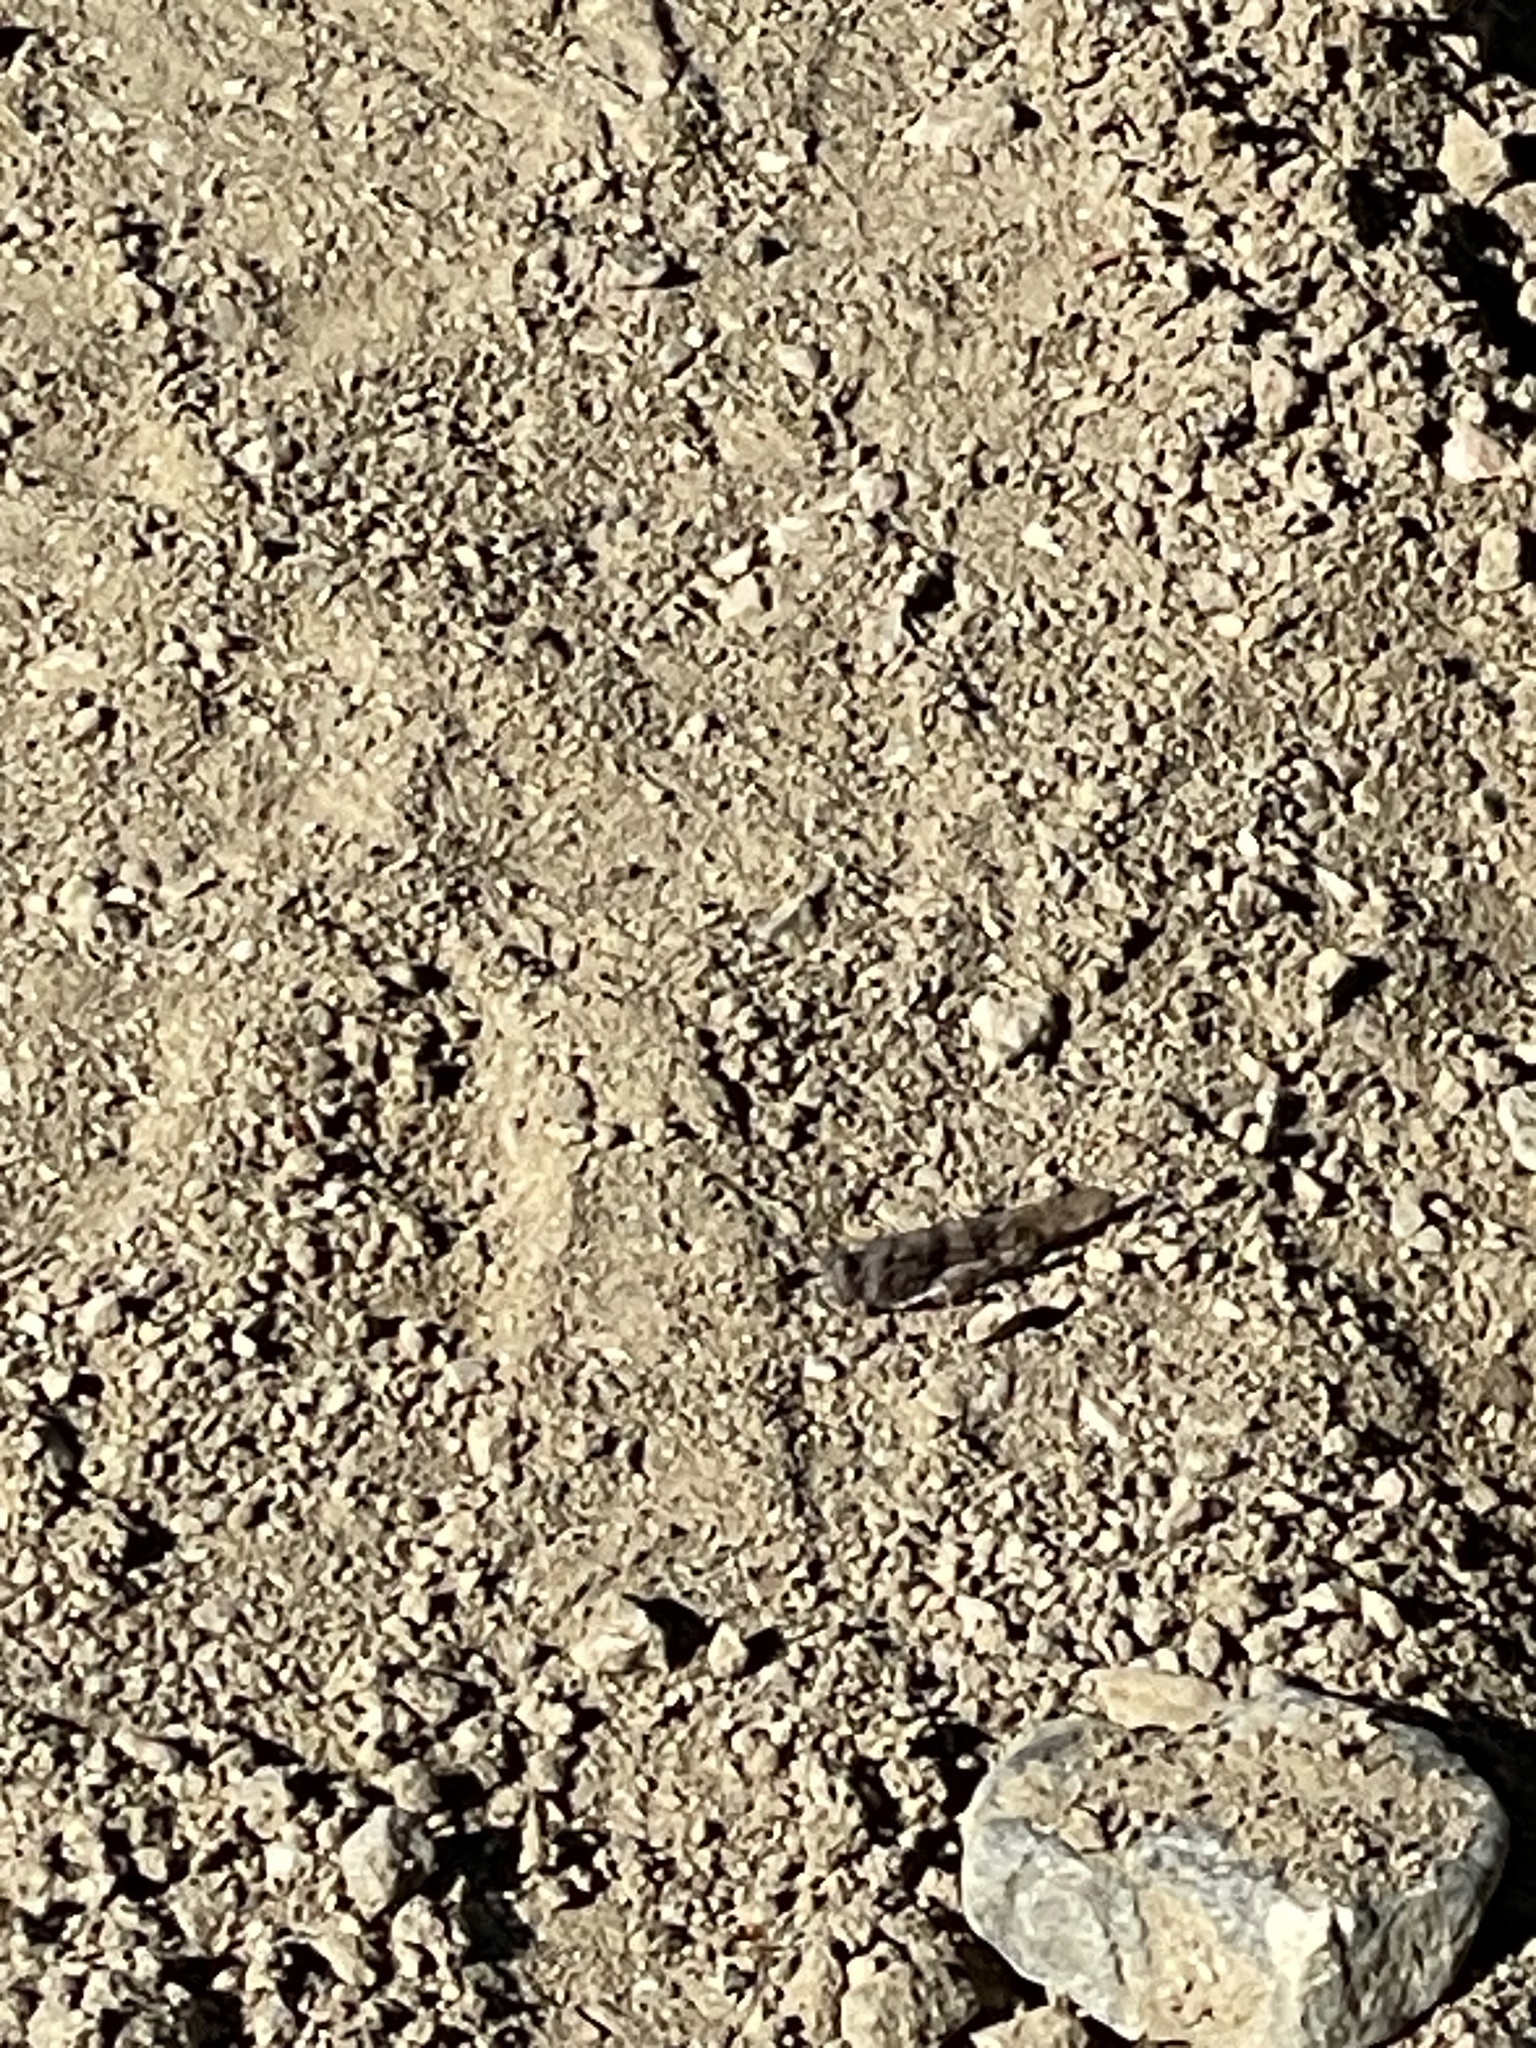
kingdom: Animalia
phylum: Arthropoda
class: Insecta
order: Orthoptera
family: Acrididae
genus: Trimerotropis
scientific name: Trimerotropis pallidipennis
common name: Pallid-winged grasshopper
